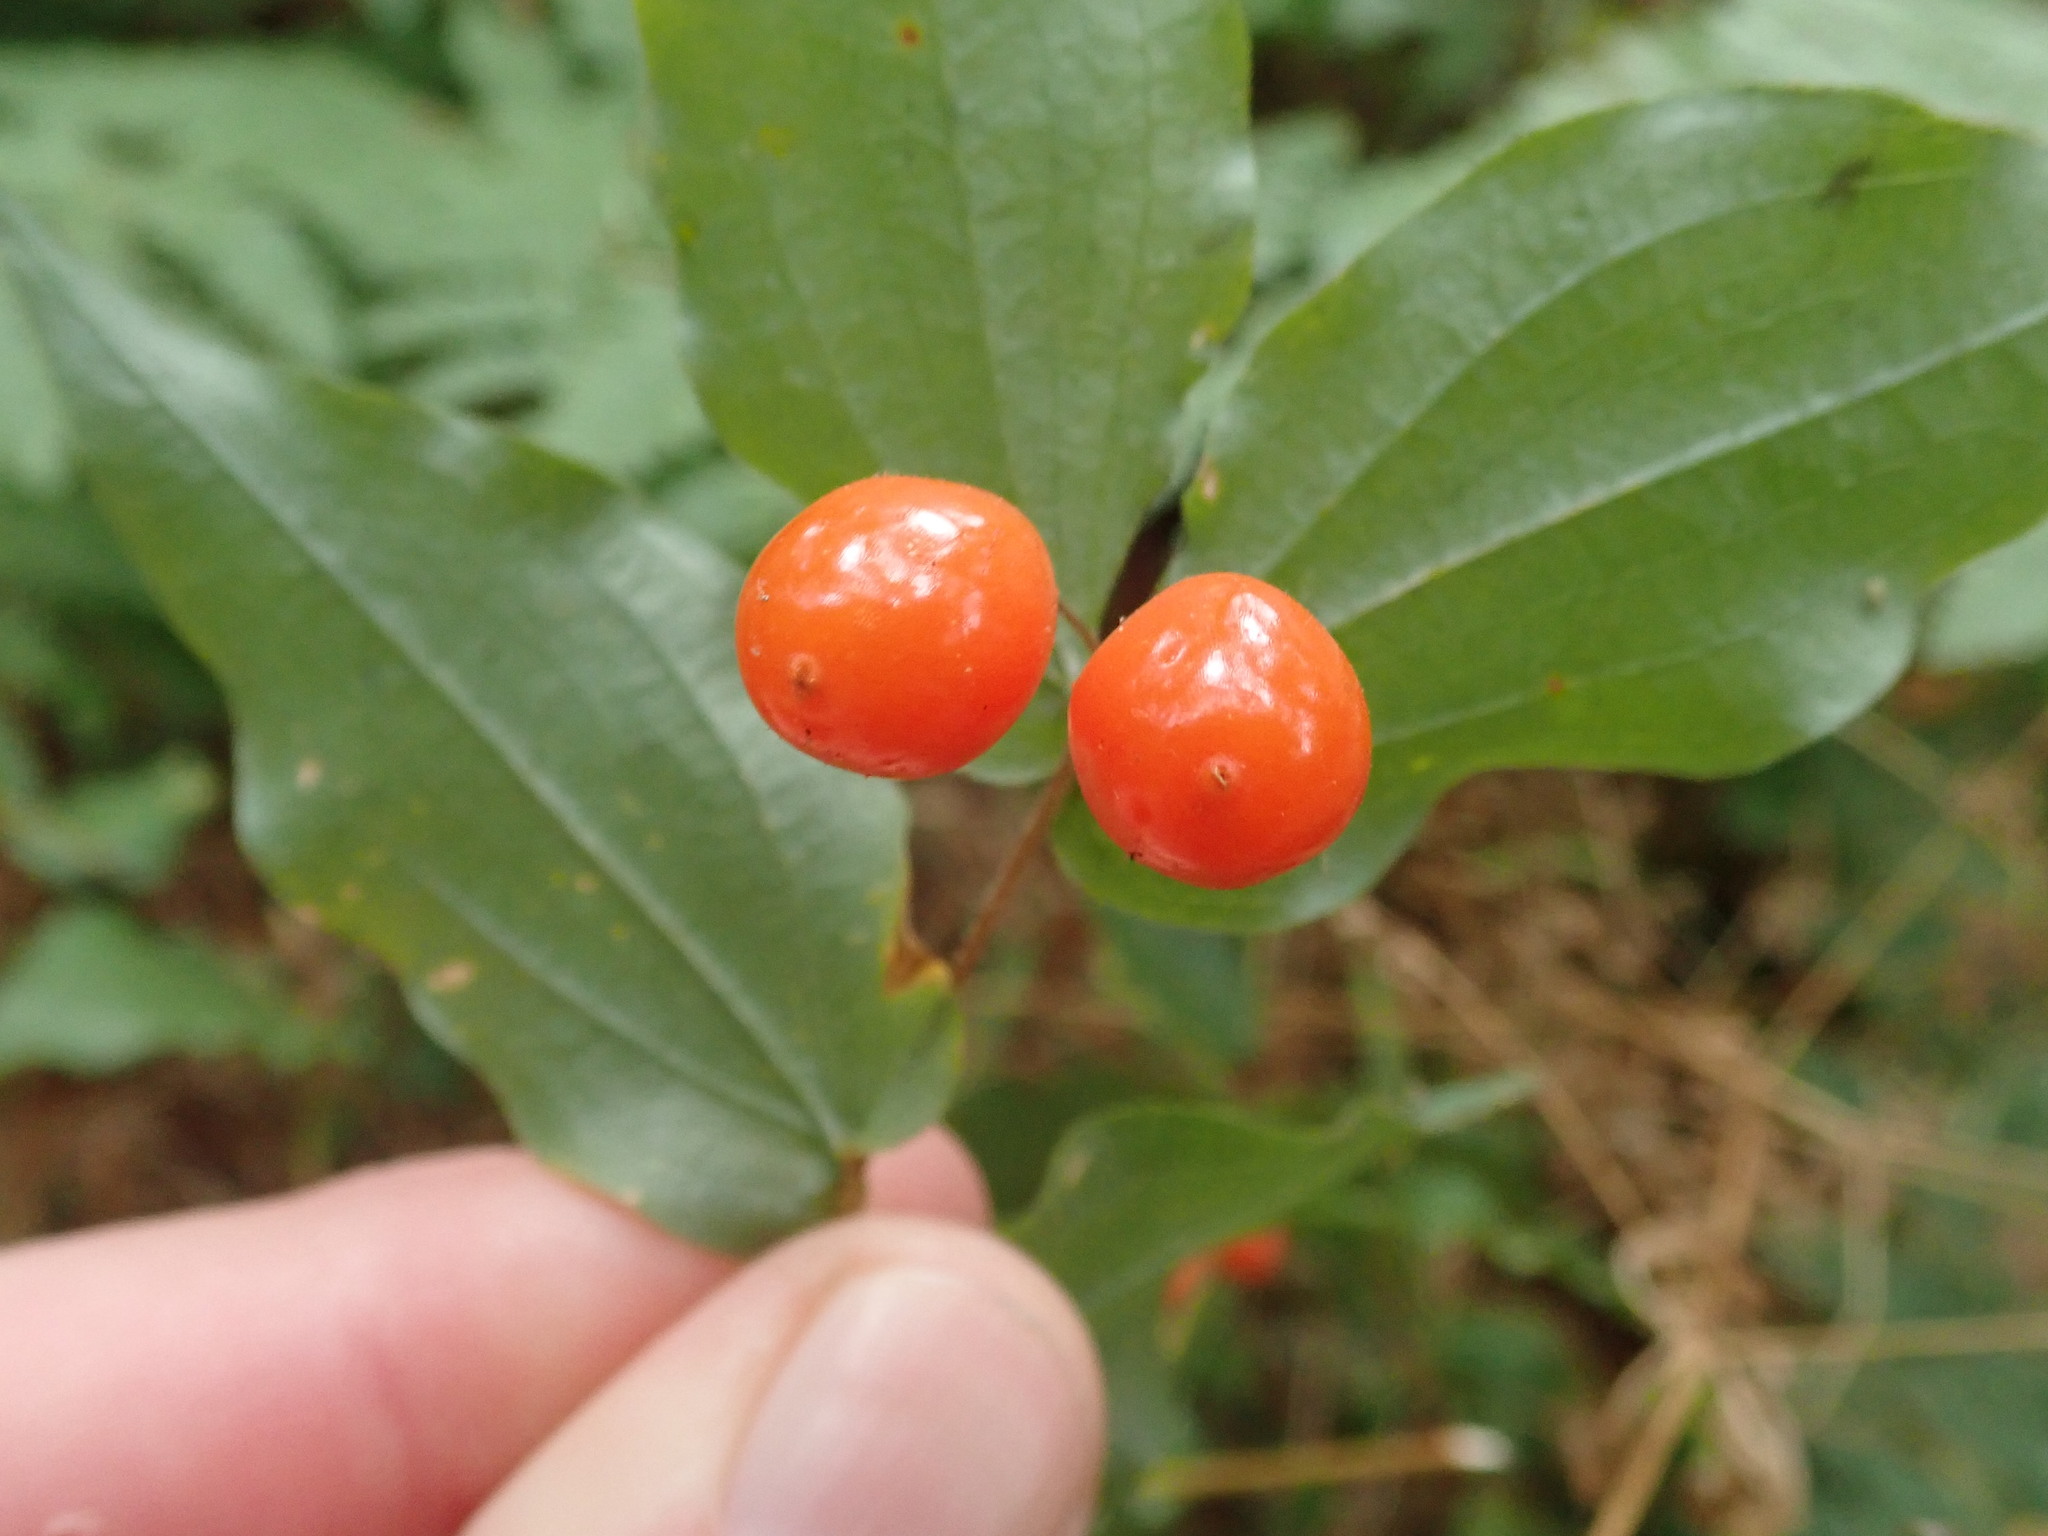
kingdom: Plantae
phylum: Tracheophyta
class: Liliopsida
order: Liliales
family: Liliaceae
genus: Prosartes
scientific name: Prosartes hookeri
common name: Fairy-bells
